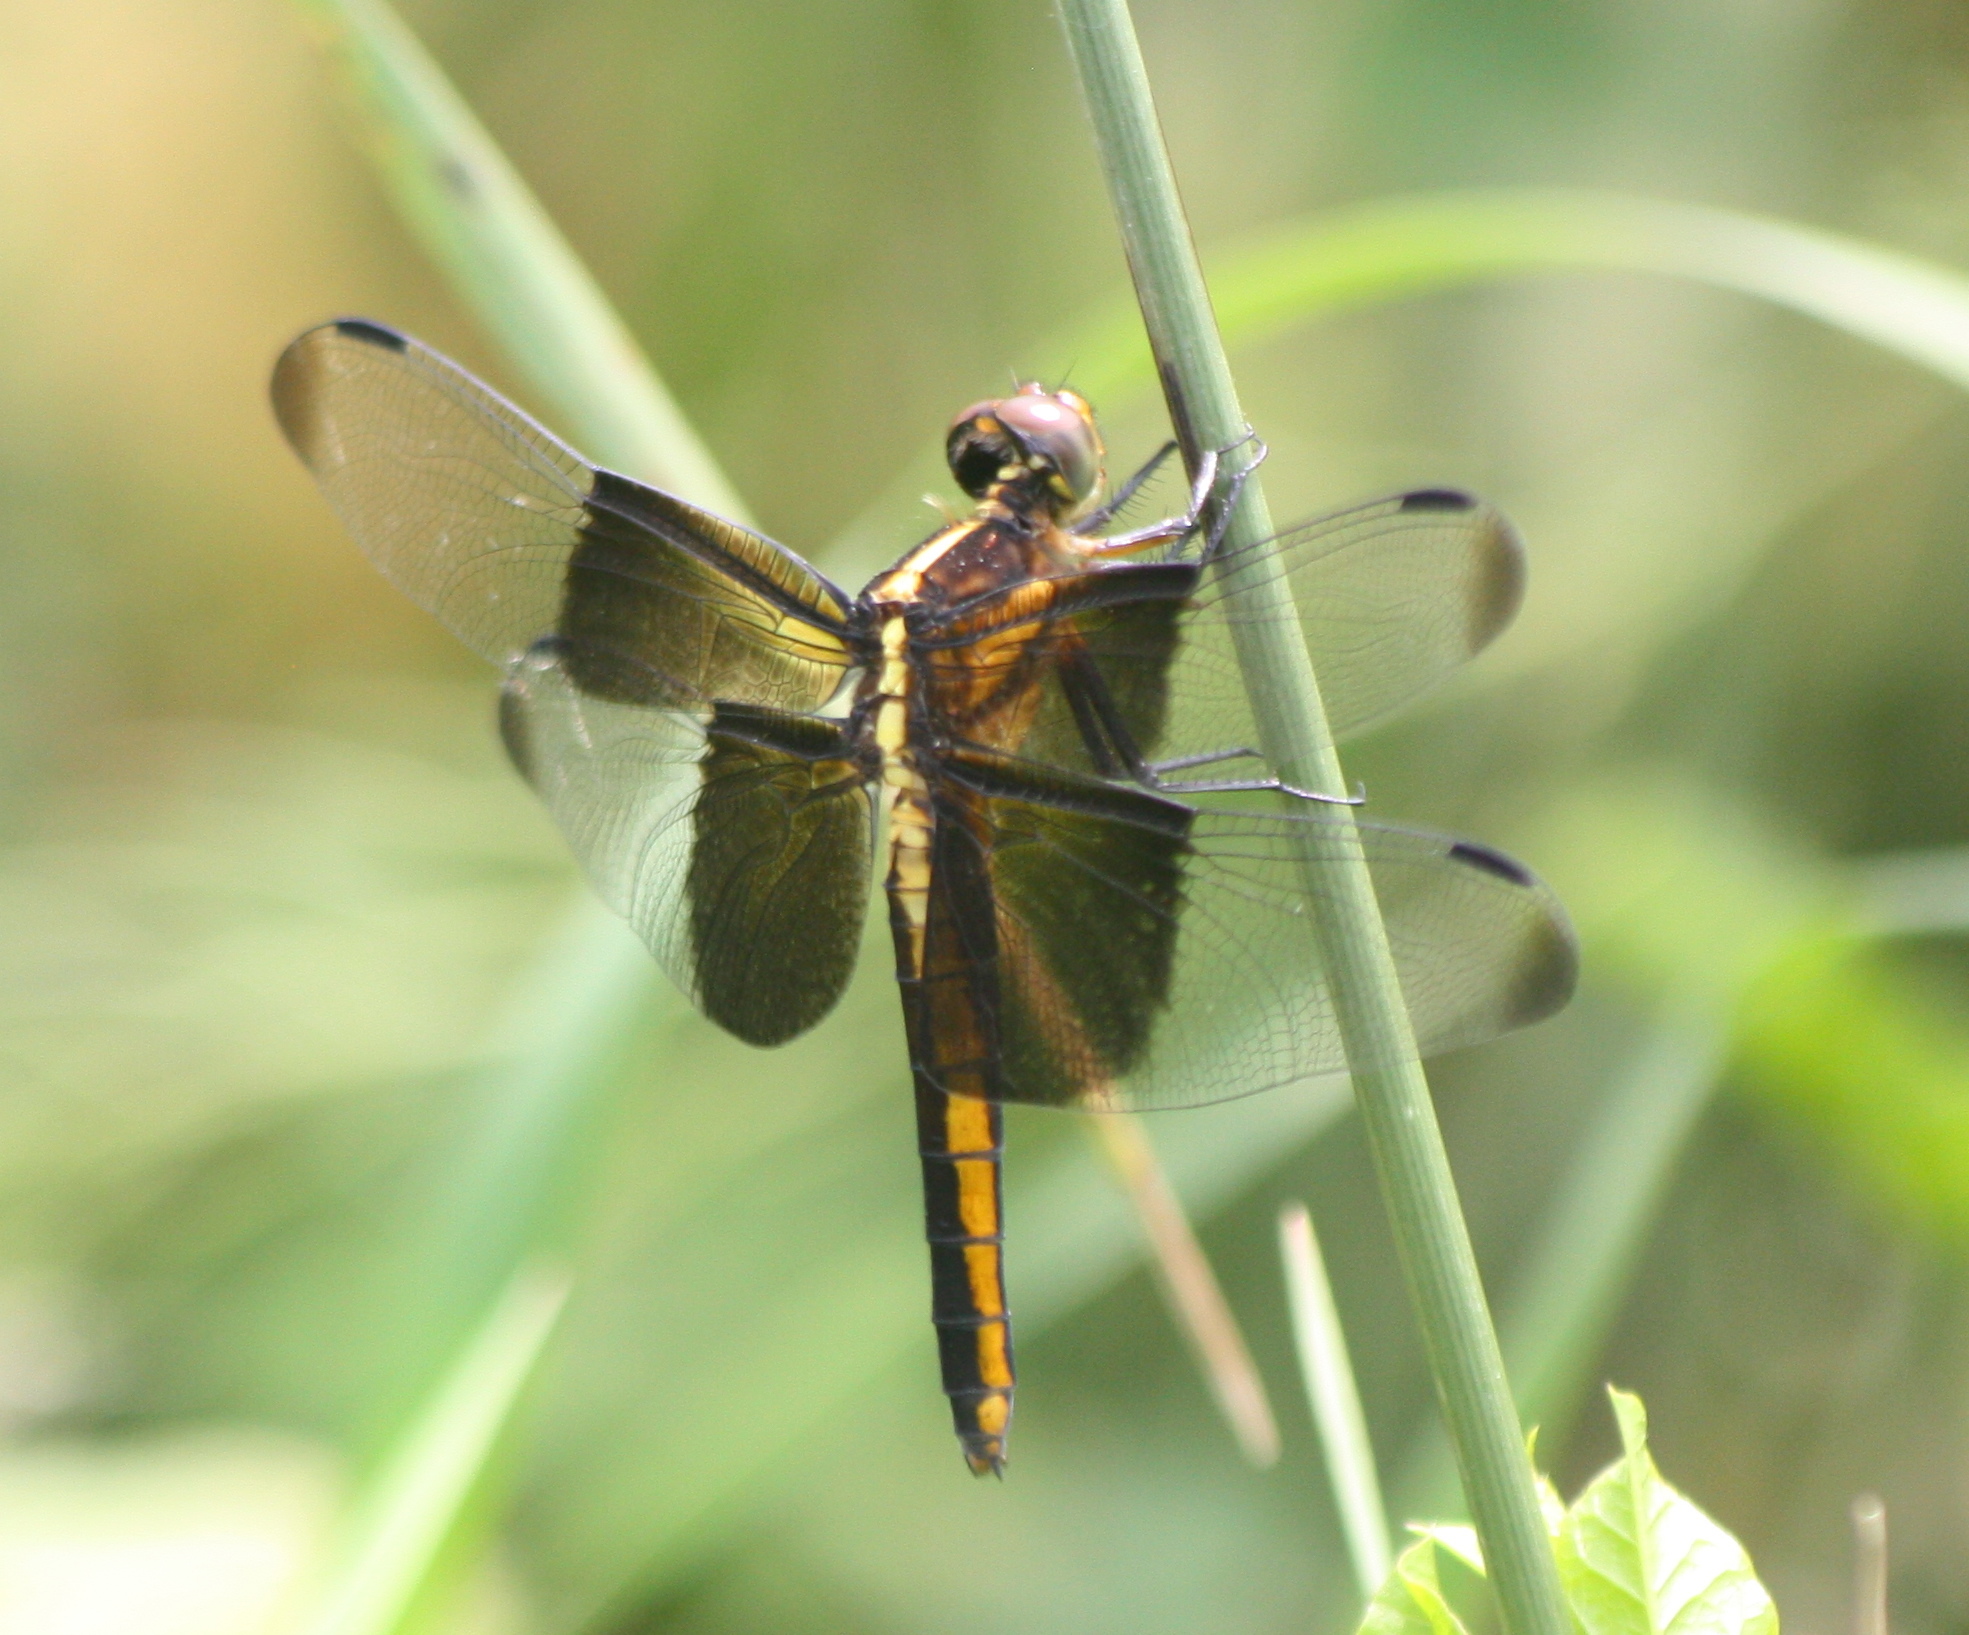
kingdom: Animalia
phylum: Arthropoda
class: Insecta
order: Odonata
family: Libellulidae
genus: Libellula
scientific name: Libellula luctuosa
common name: Widow skimmer
